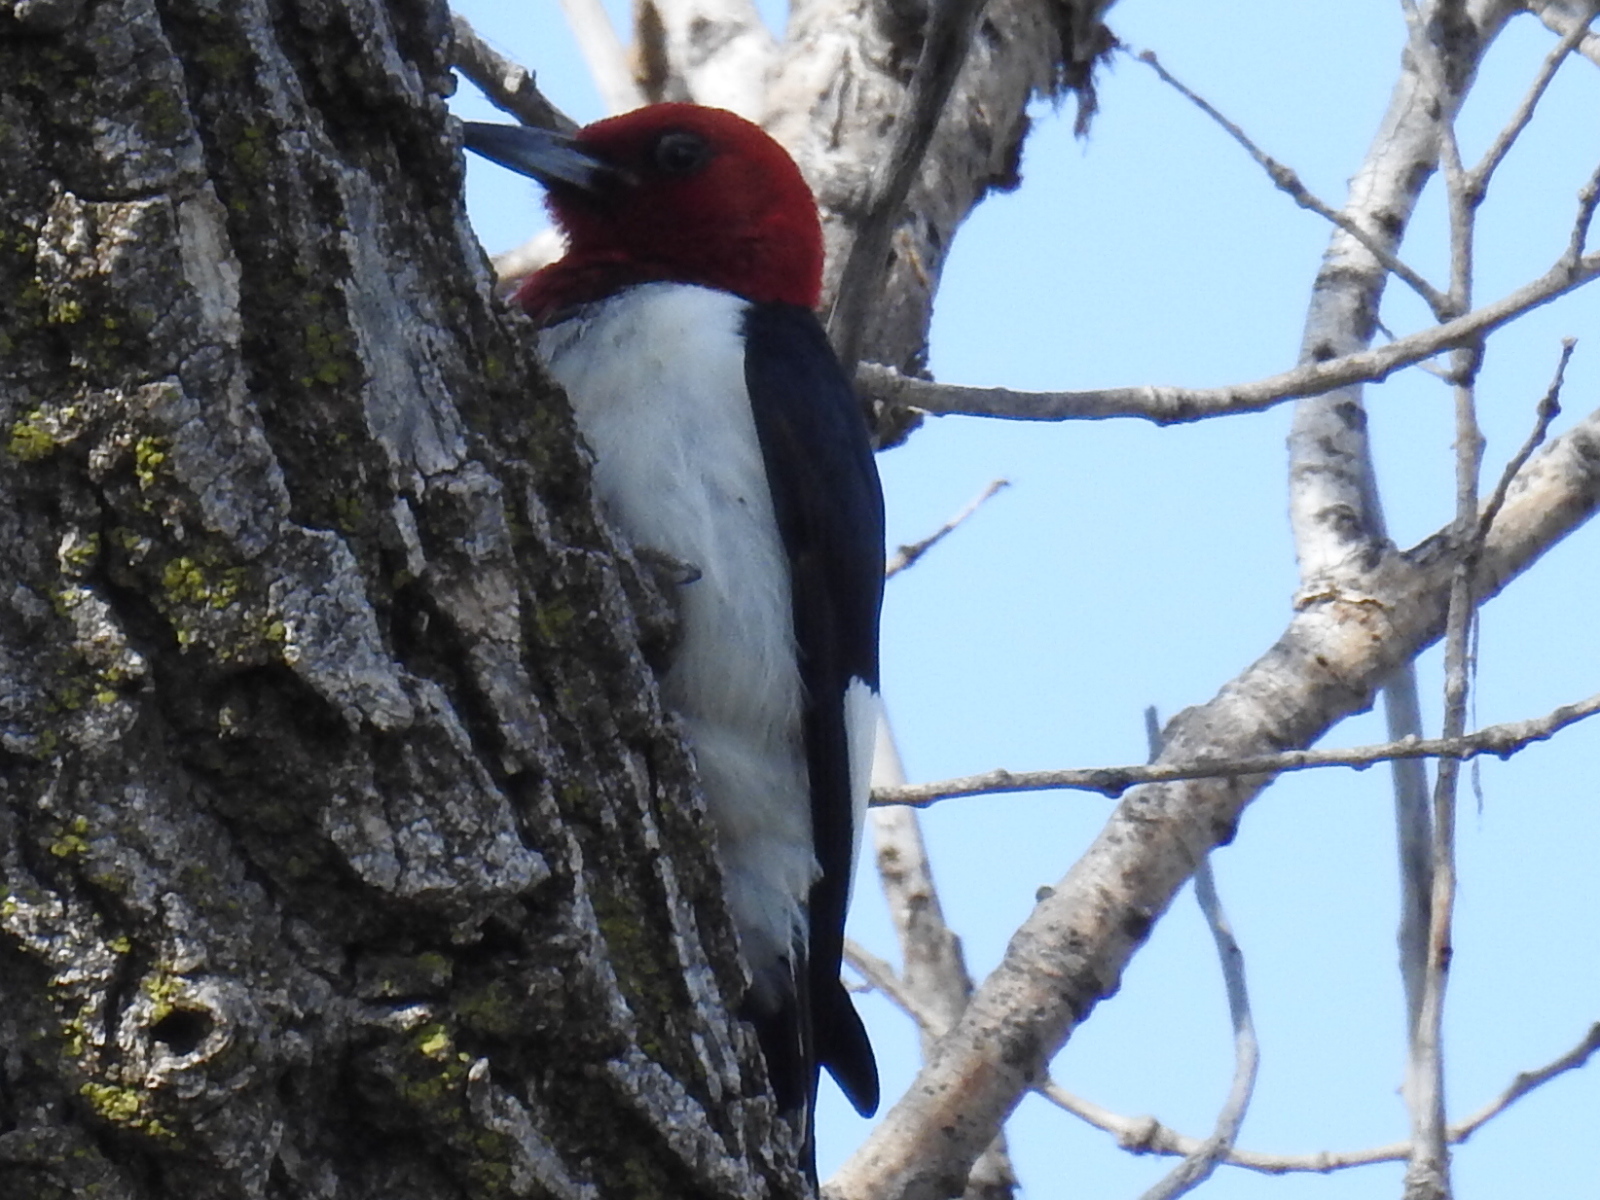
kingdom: Animalia
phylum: Chordata
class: Aves
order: Piciformes
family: Picidae
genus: Melanerpes
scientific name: Melanerpes erythrocephalus
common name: Red-headed woodpecker
